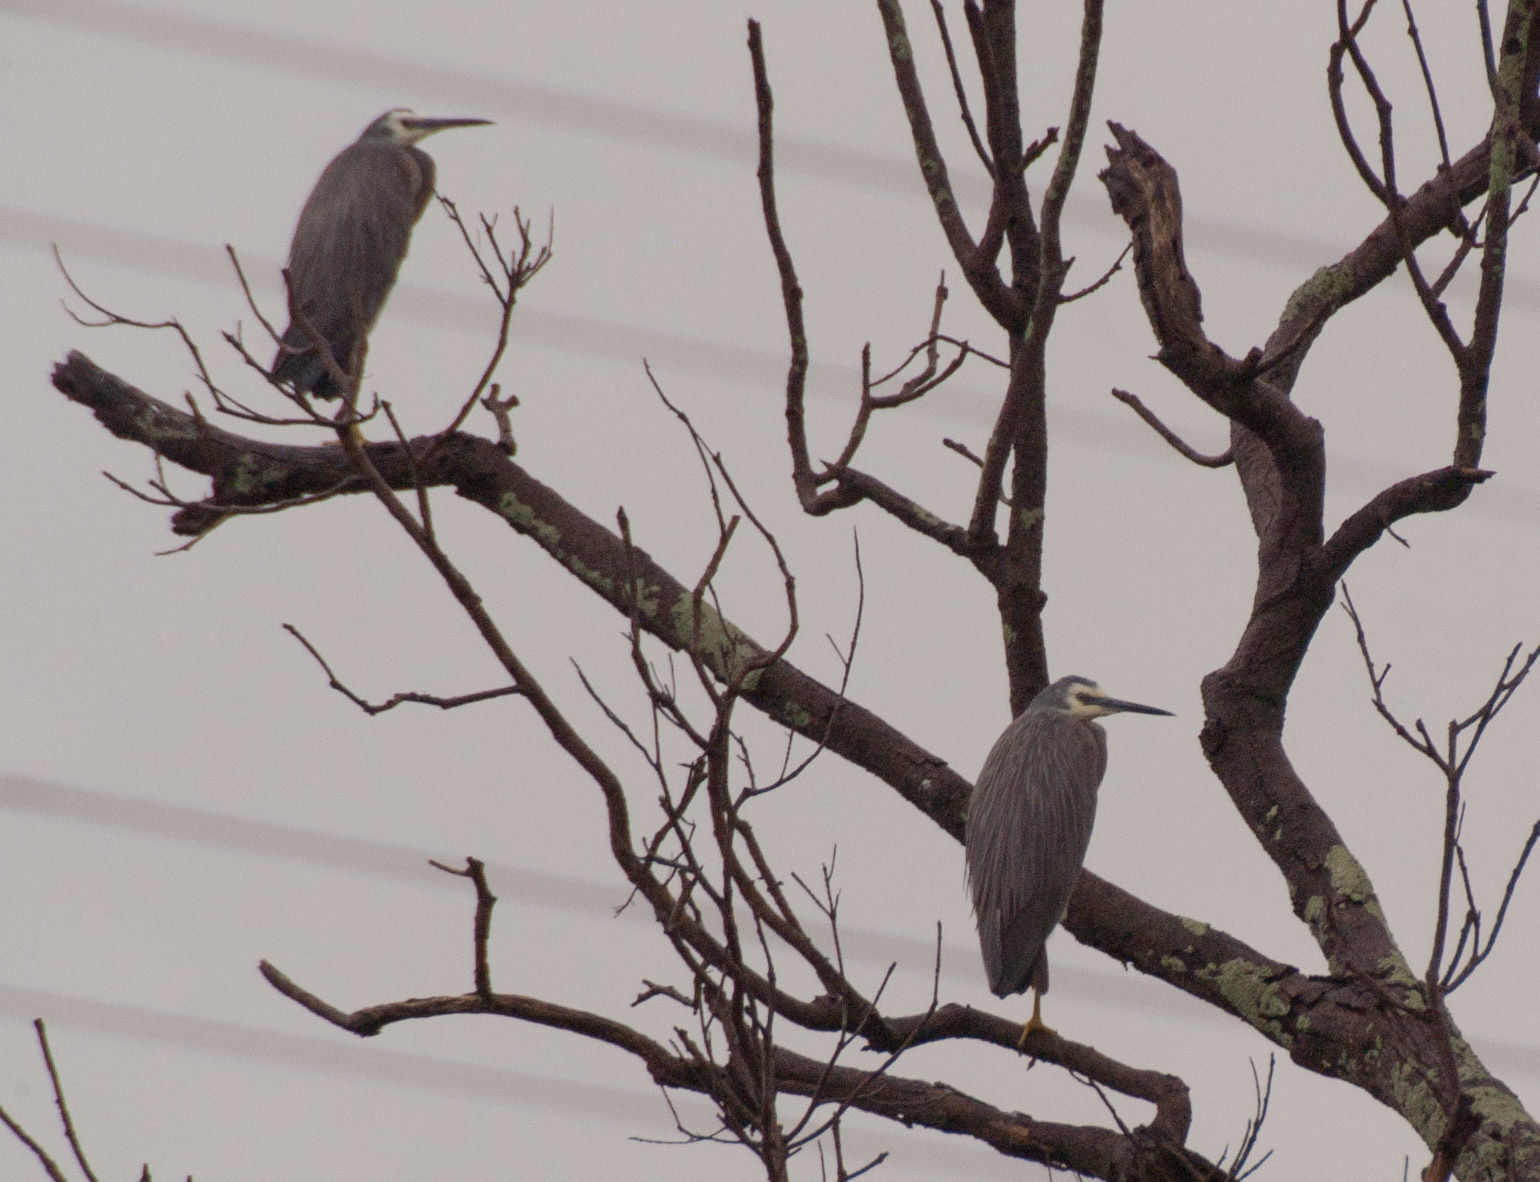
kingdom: Animalia
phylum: Chordata
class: Aves
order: Pelecaniformes
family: Ardeidae
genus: Egretta
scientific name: Egretta novaehollandiae
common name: White-faced heron
